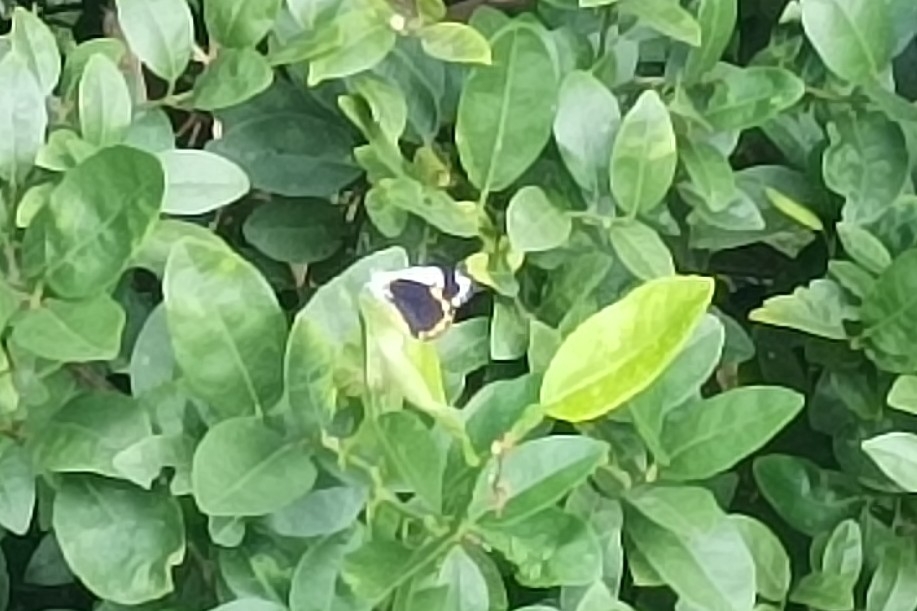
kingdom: Animalia
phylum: Arthropoda
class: Insecta
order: Lepidoptera
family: Pieridae
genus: Belenois
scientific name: Belenois java
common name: Caper white
